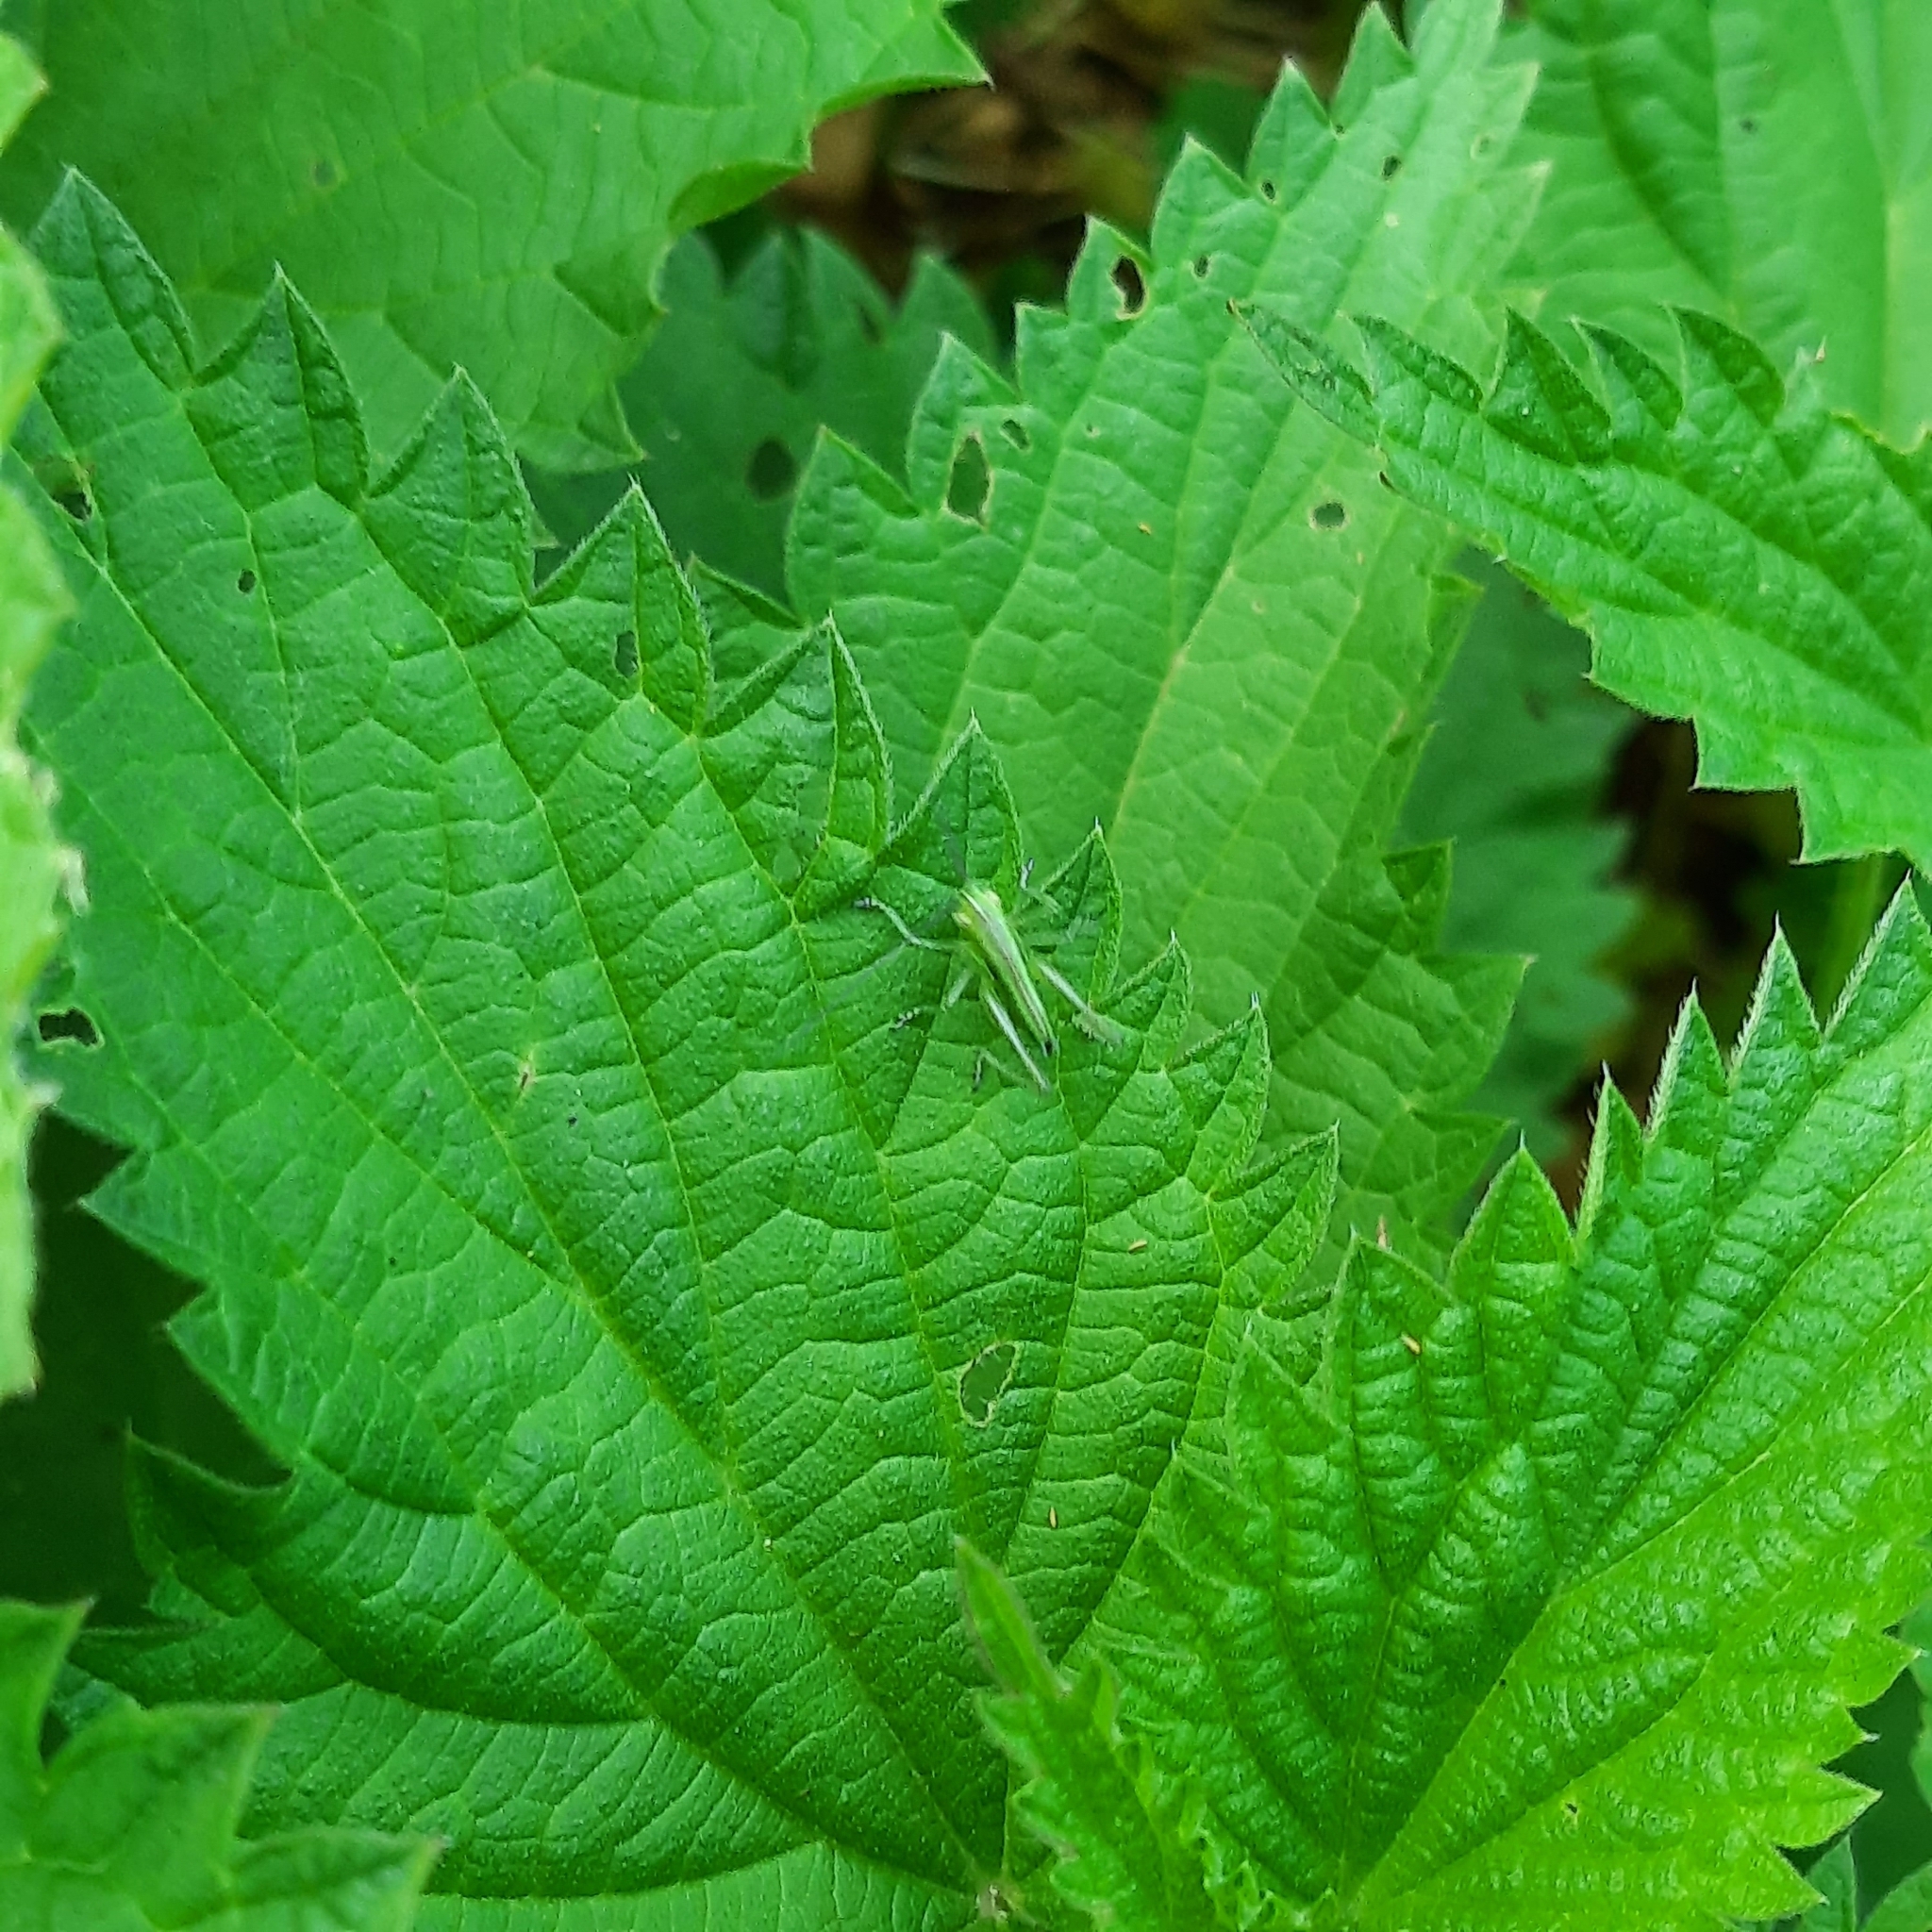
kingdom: Animalia
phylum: Arthropoda
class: Insecta
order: Orthoptera
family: Tettigoniidae
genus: Tettigonia
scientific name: Tettigonia
